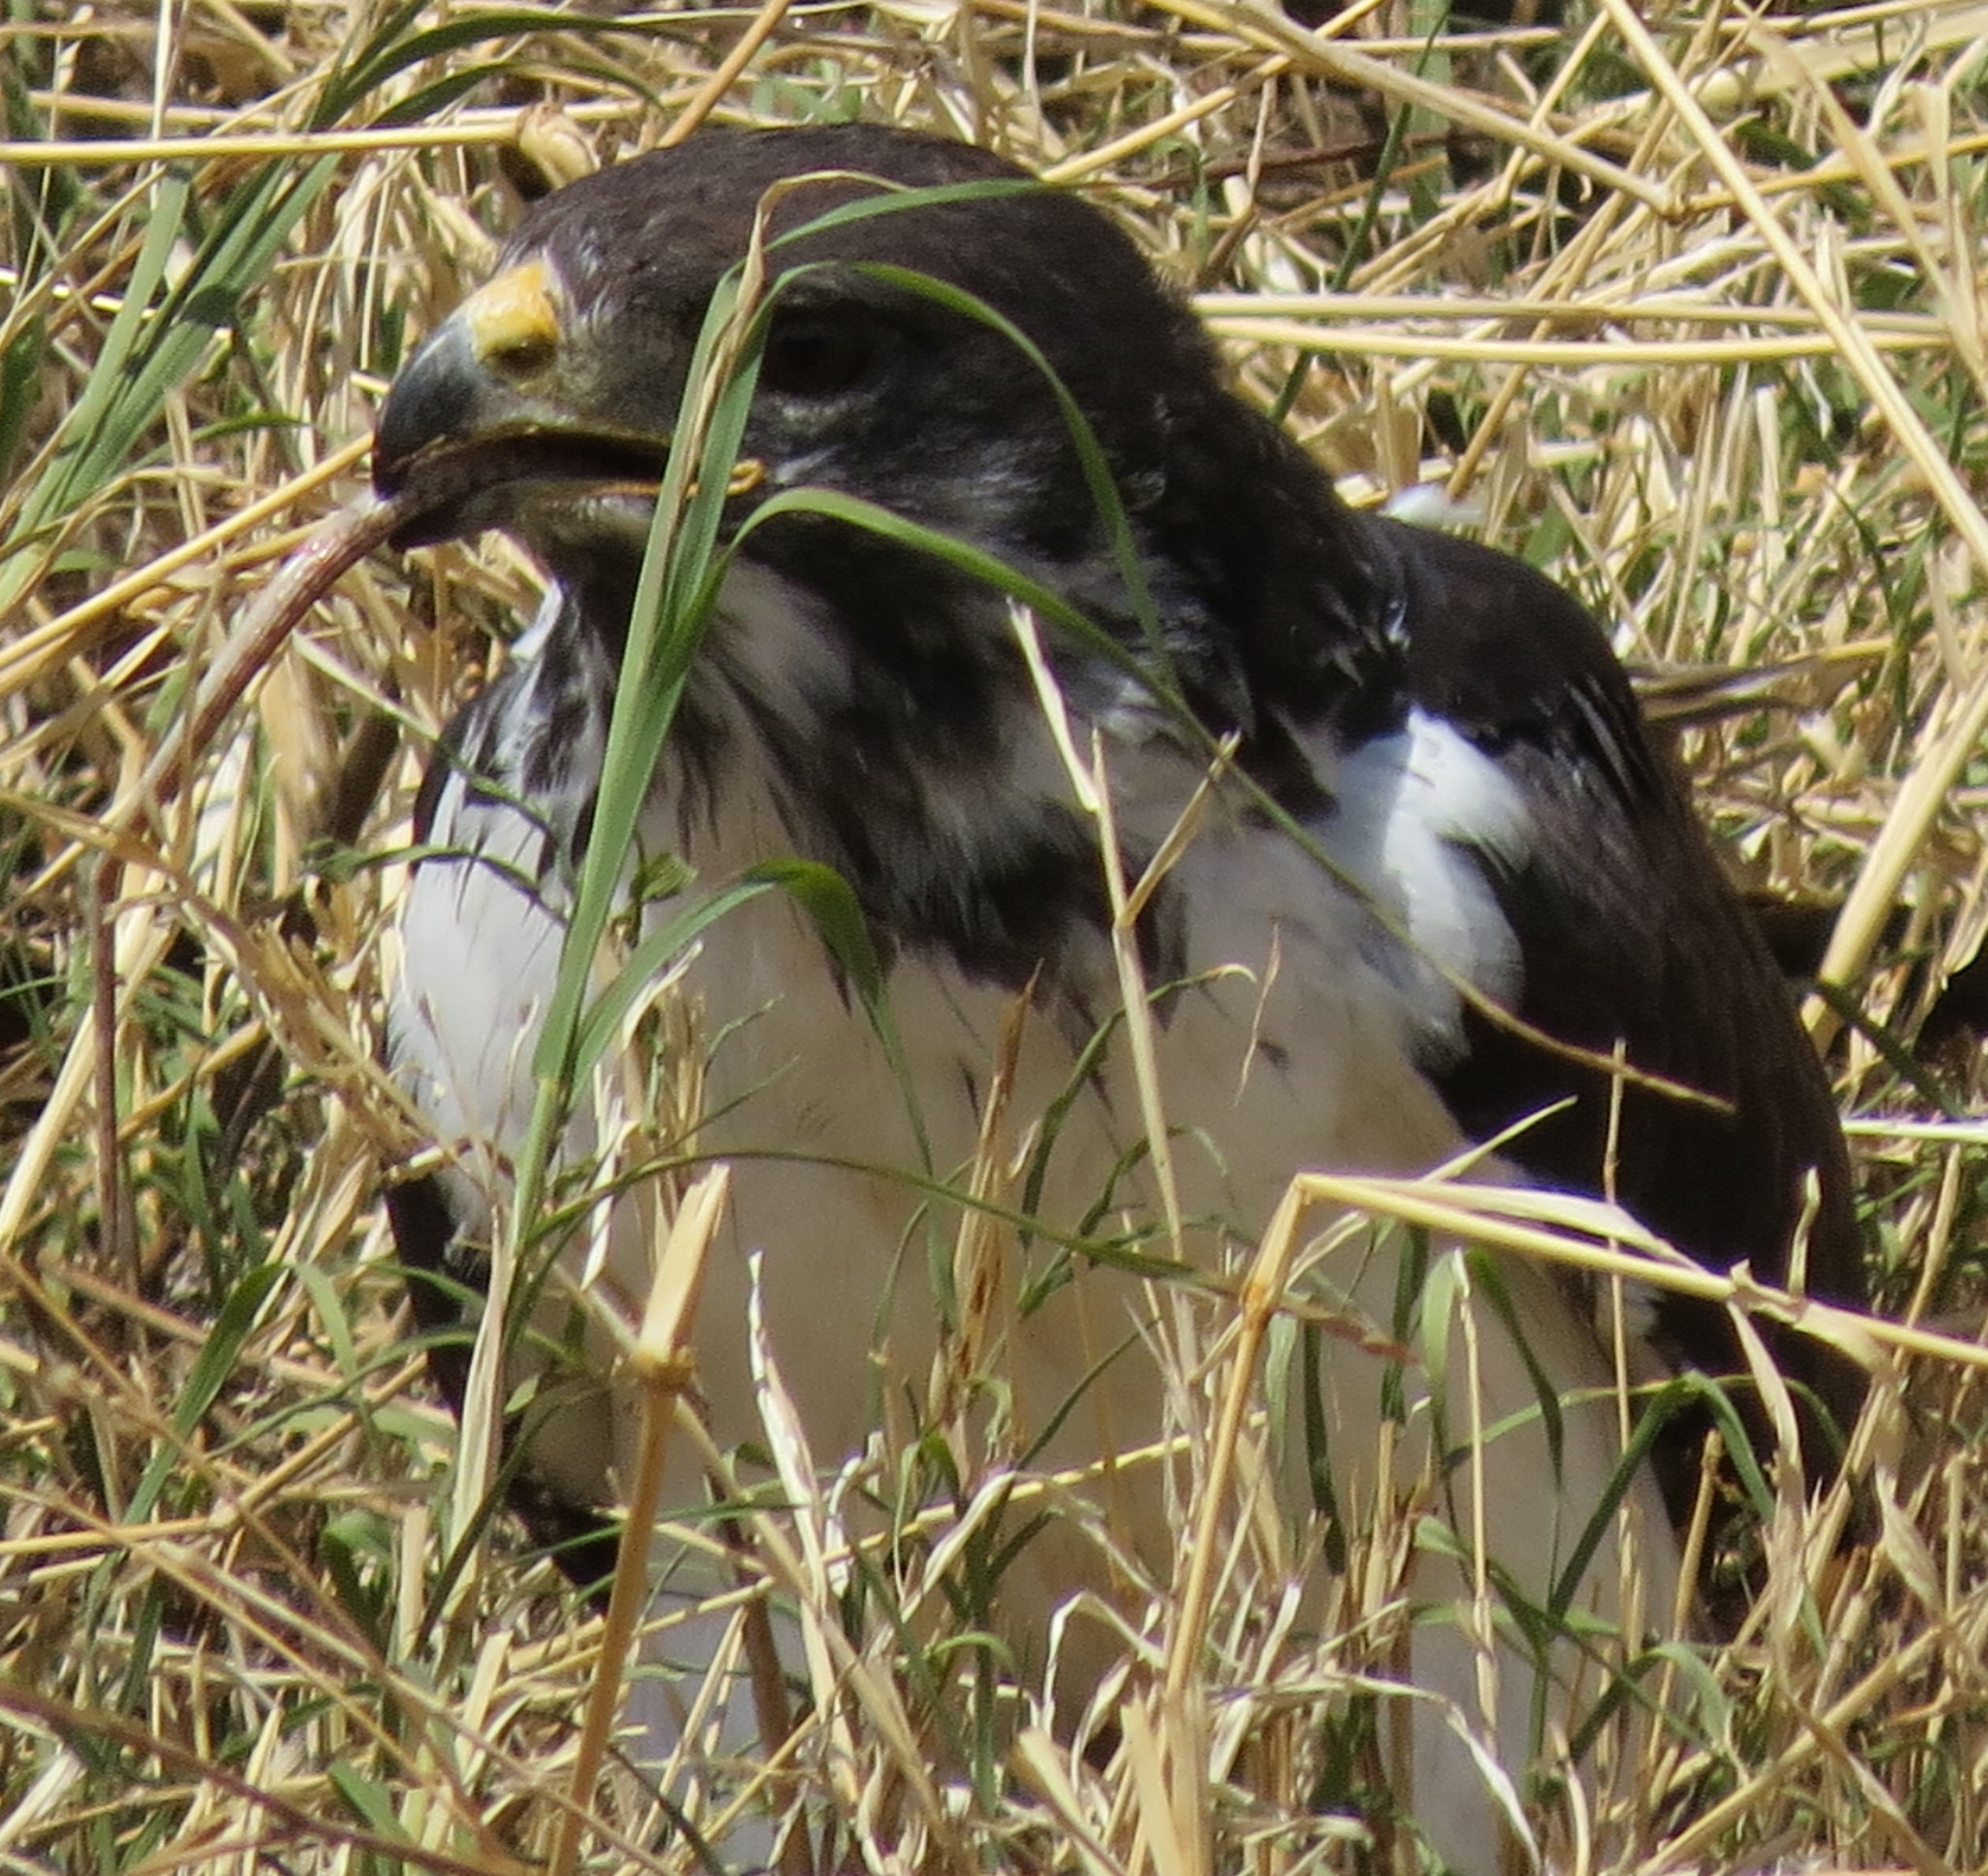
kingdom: Animalia
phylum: Chordata
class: Aves
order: Accipitriformes
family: Accipitridae
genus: Buteo
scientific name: Buteo augur
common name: Augur buzzard
